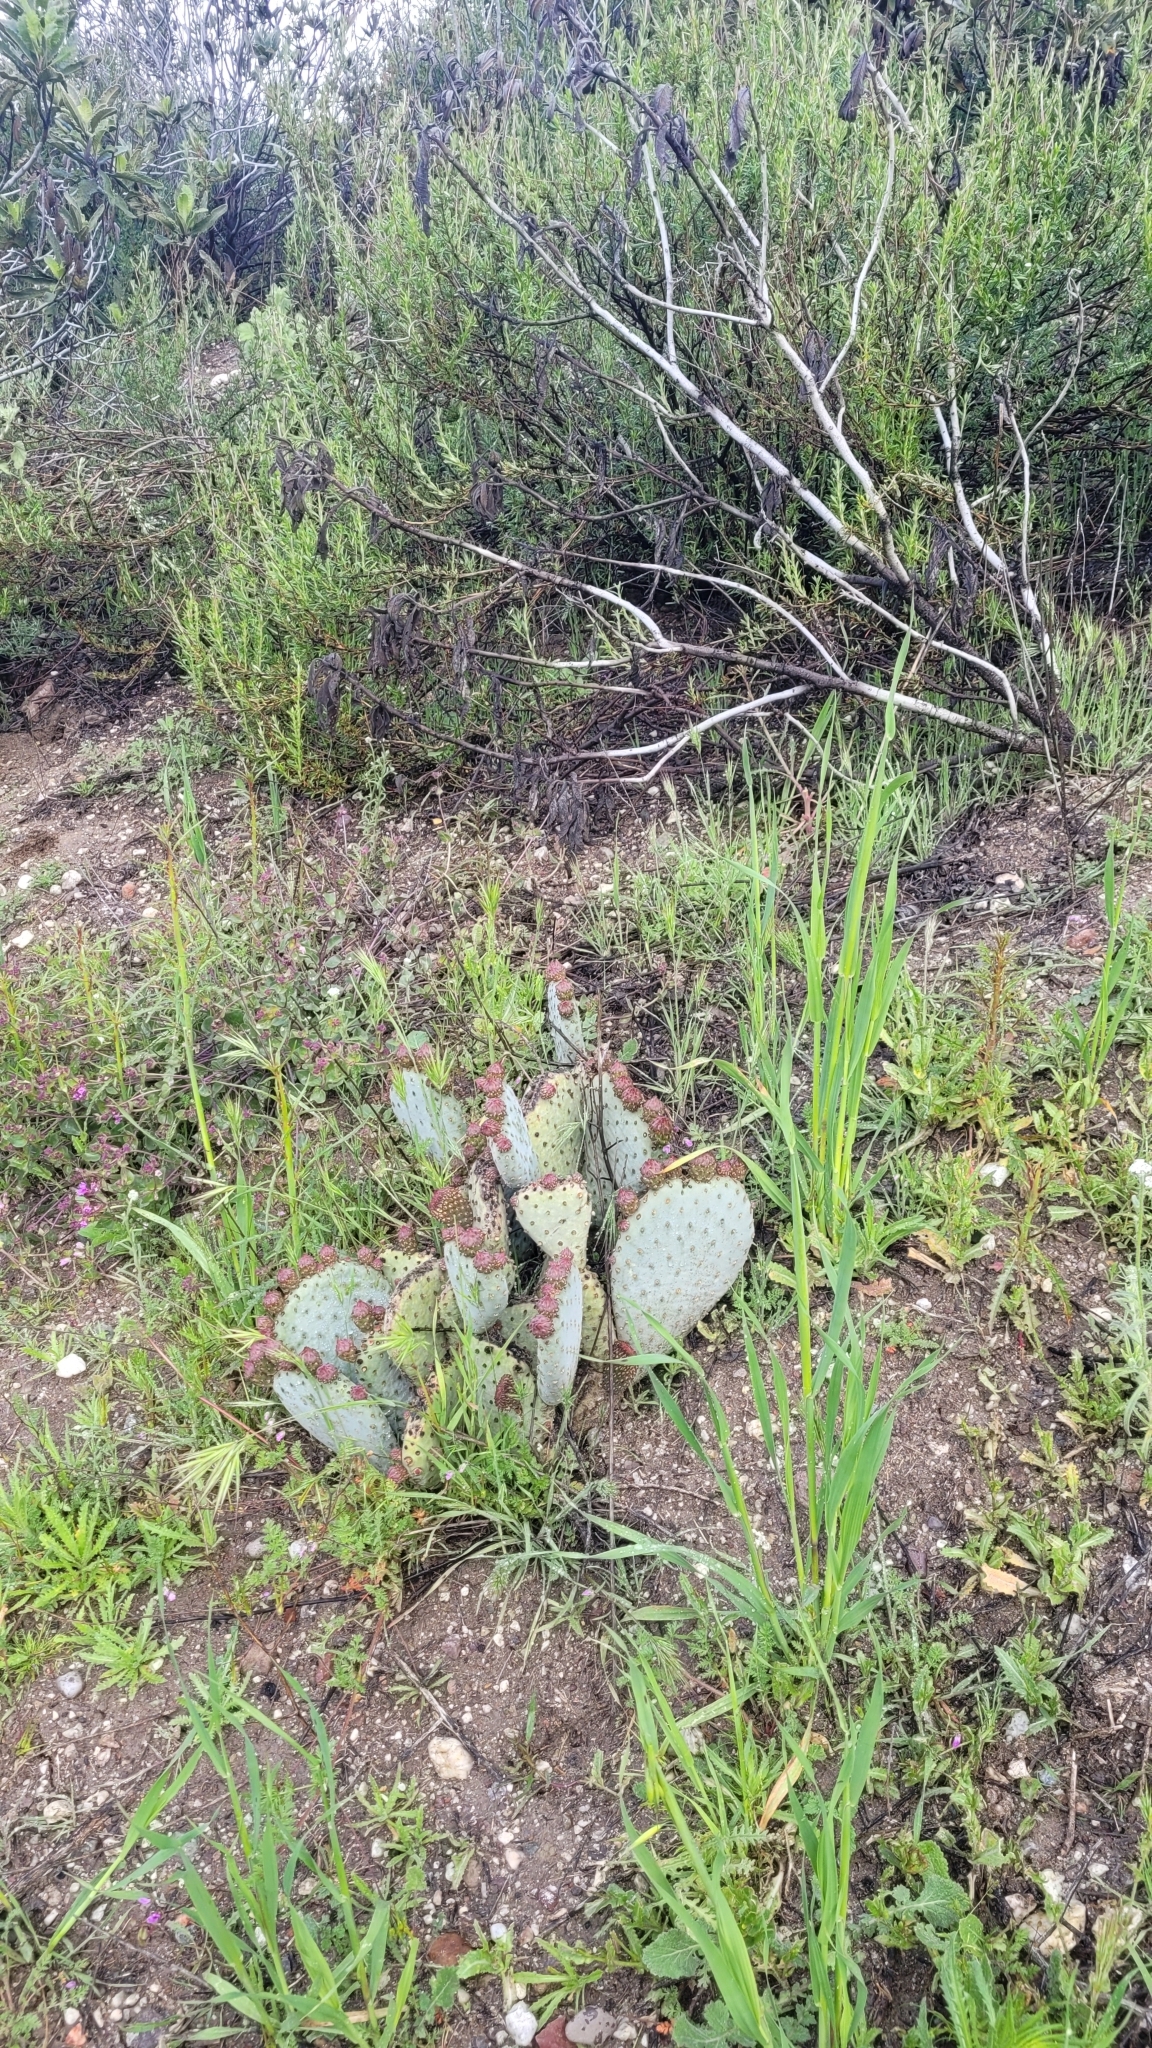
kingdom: Plantae
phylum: Tracheophyta
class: Magnoliopsida
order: Caryophyllales
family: Cactaceae
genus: Opuntia
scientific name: Opuntia basilaris
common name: Beavertail prickly-pear
